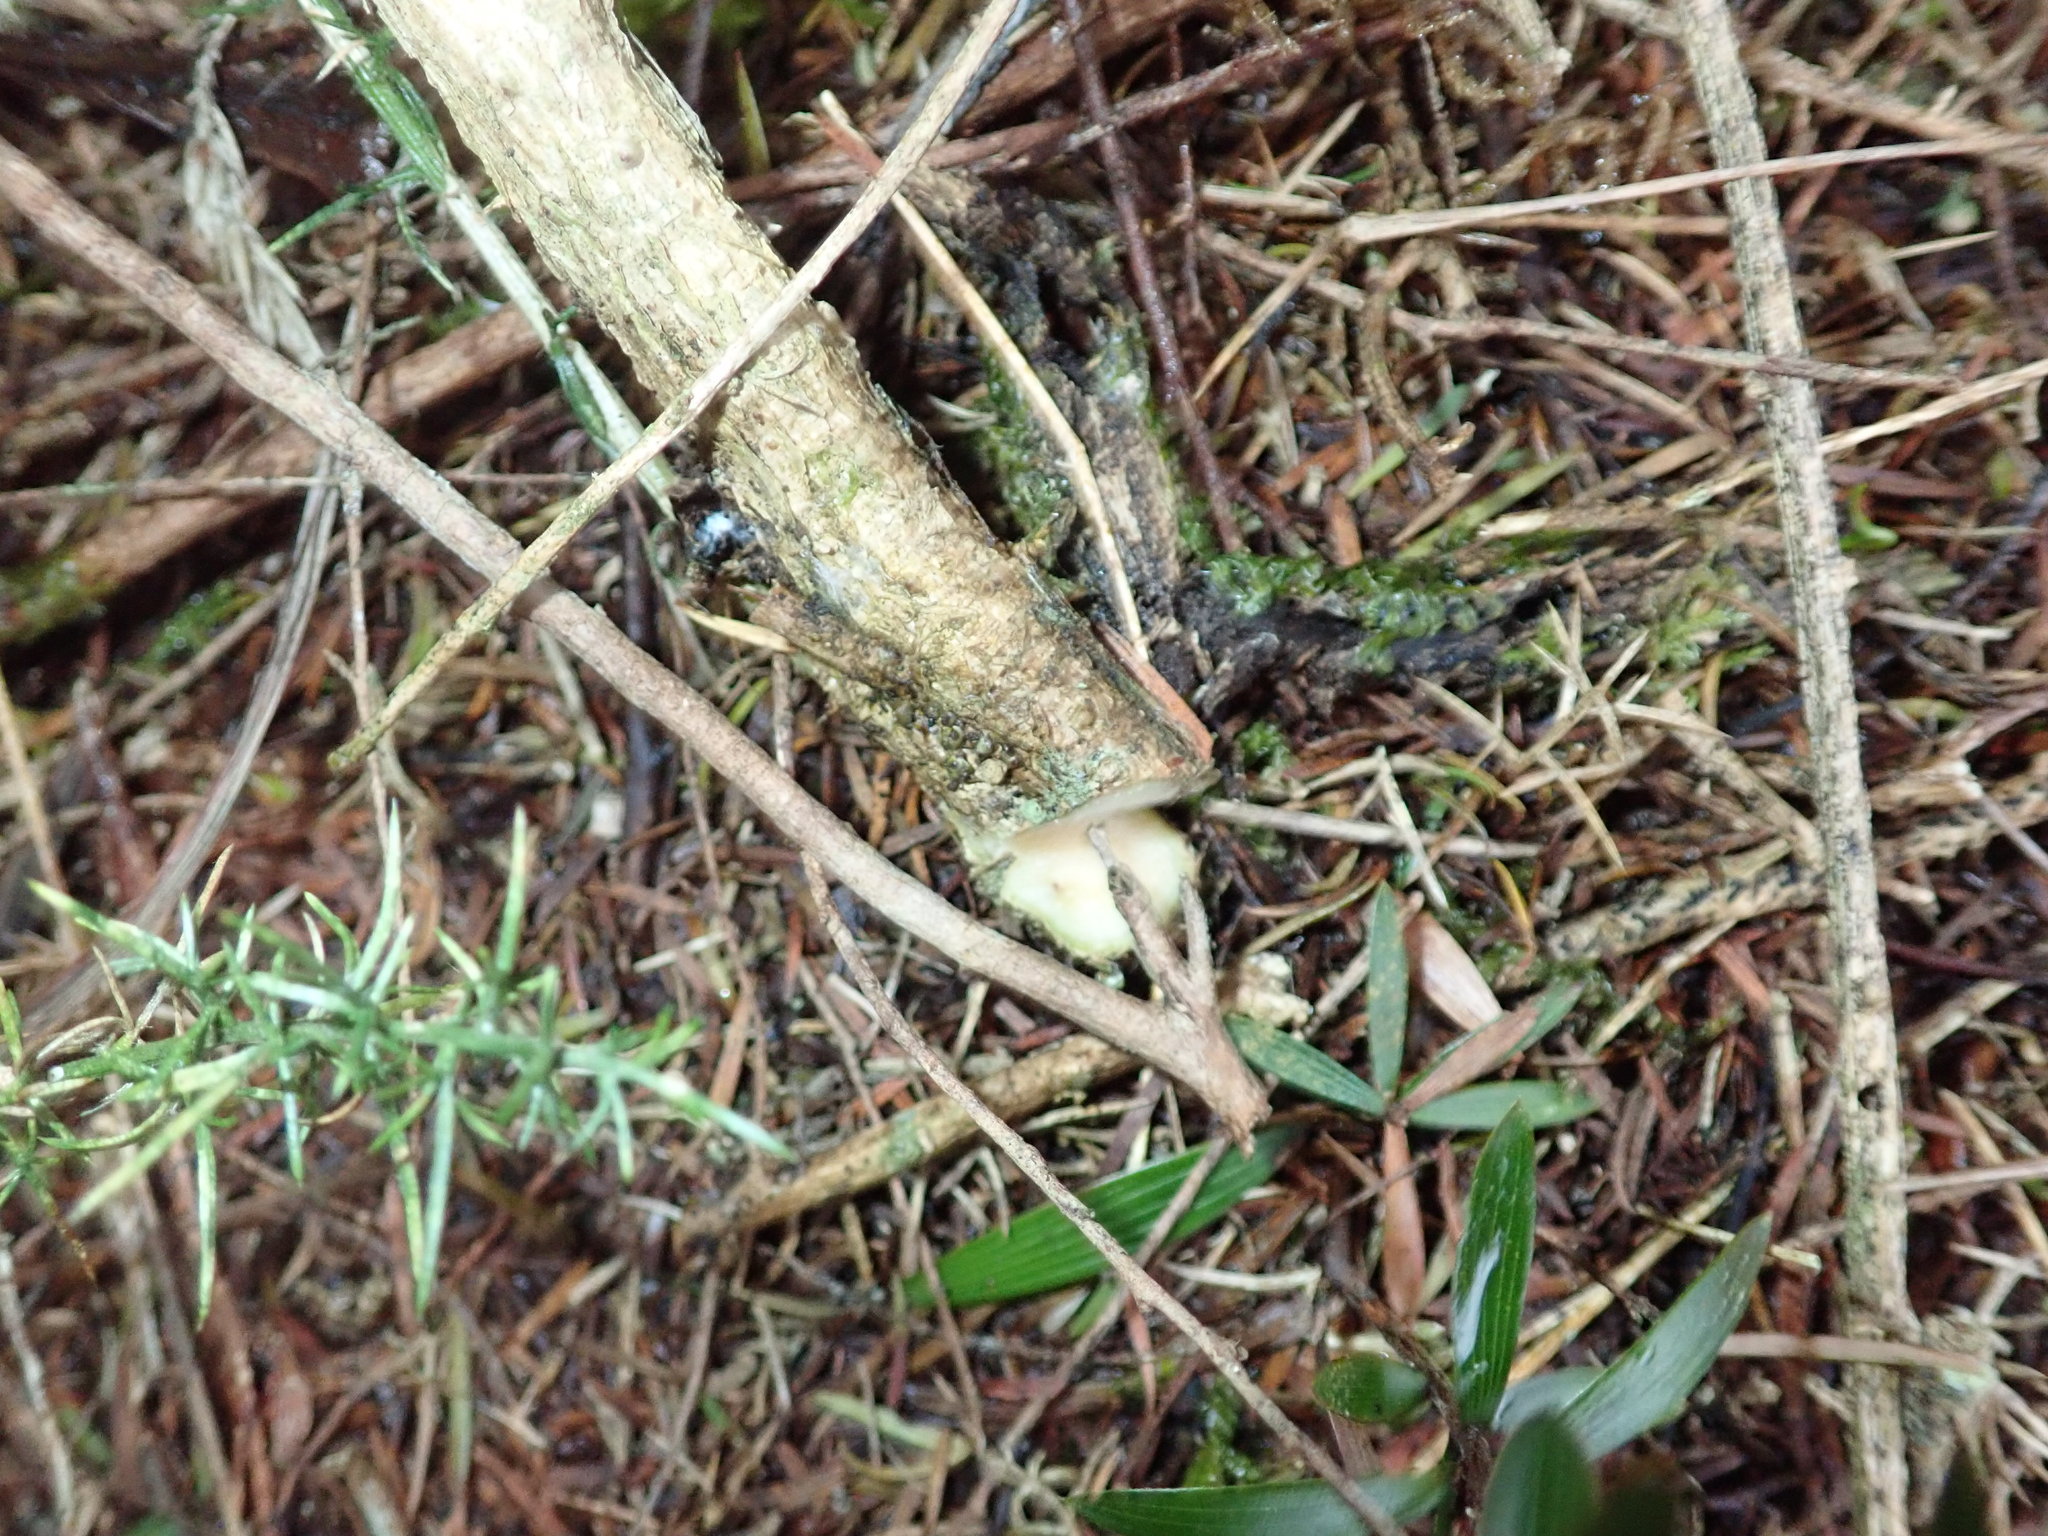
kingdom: Plantae
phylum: Tracheophyta
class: Magnoliopsida
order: Fabales
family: Fabaceae
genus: Ulex
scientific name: Ulex europaeus
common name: Common gorse
